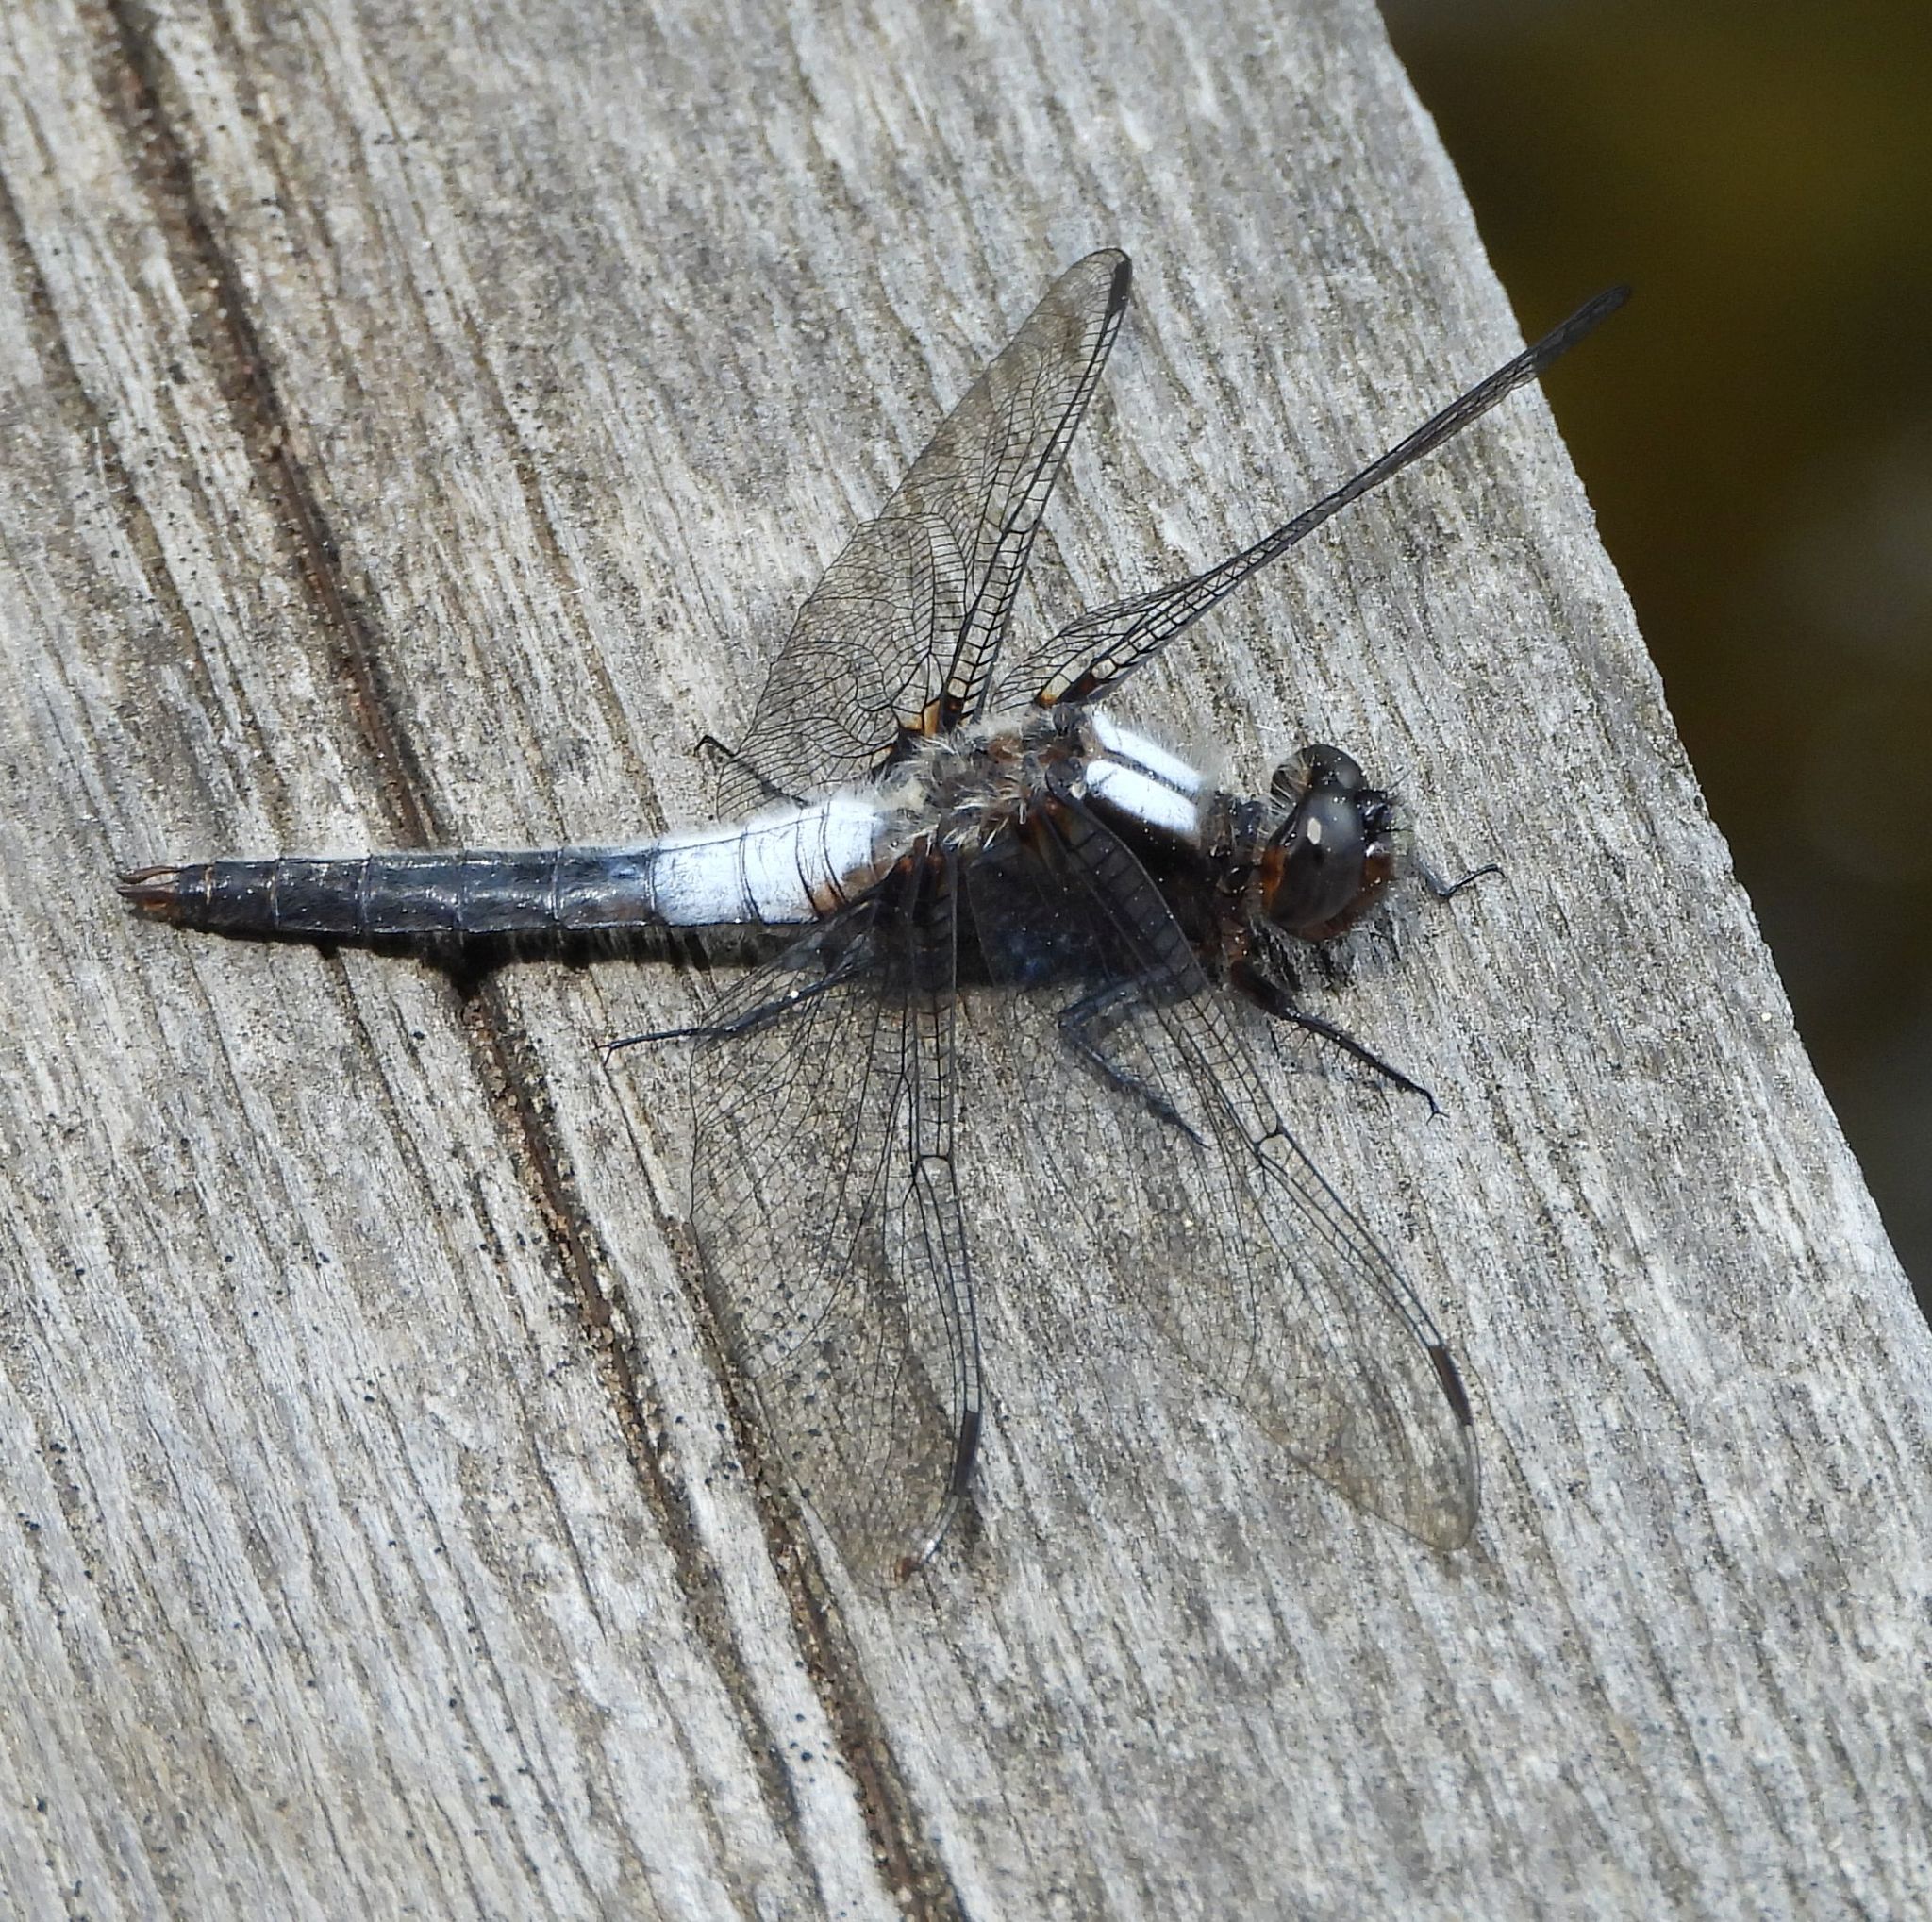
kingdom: Animalia
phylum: Arthropoda
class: Insecta
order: Odonata
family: Libellulidae
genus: Ladona
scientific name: Ladona julia
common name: Chalk-fronted corporal
